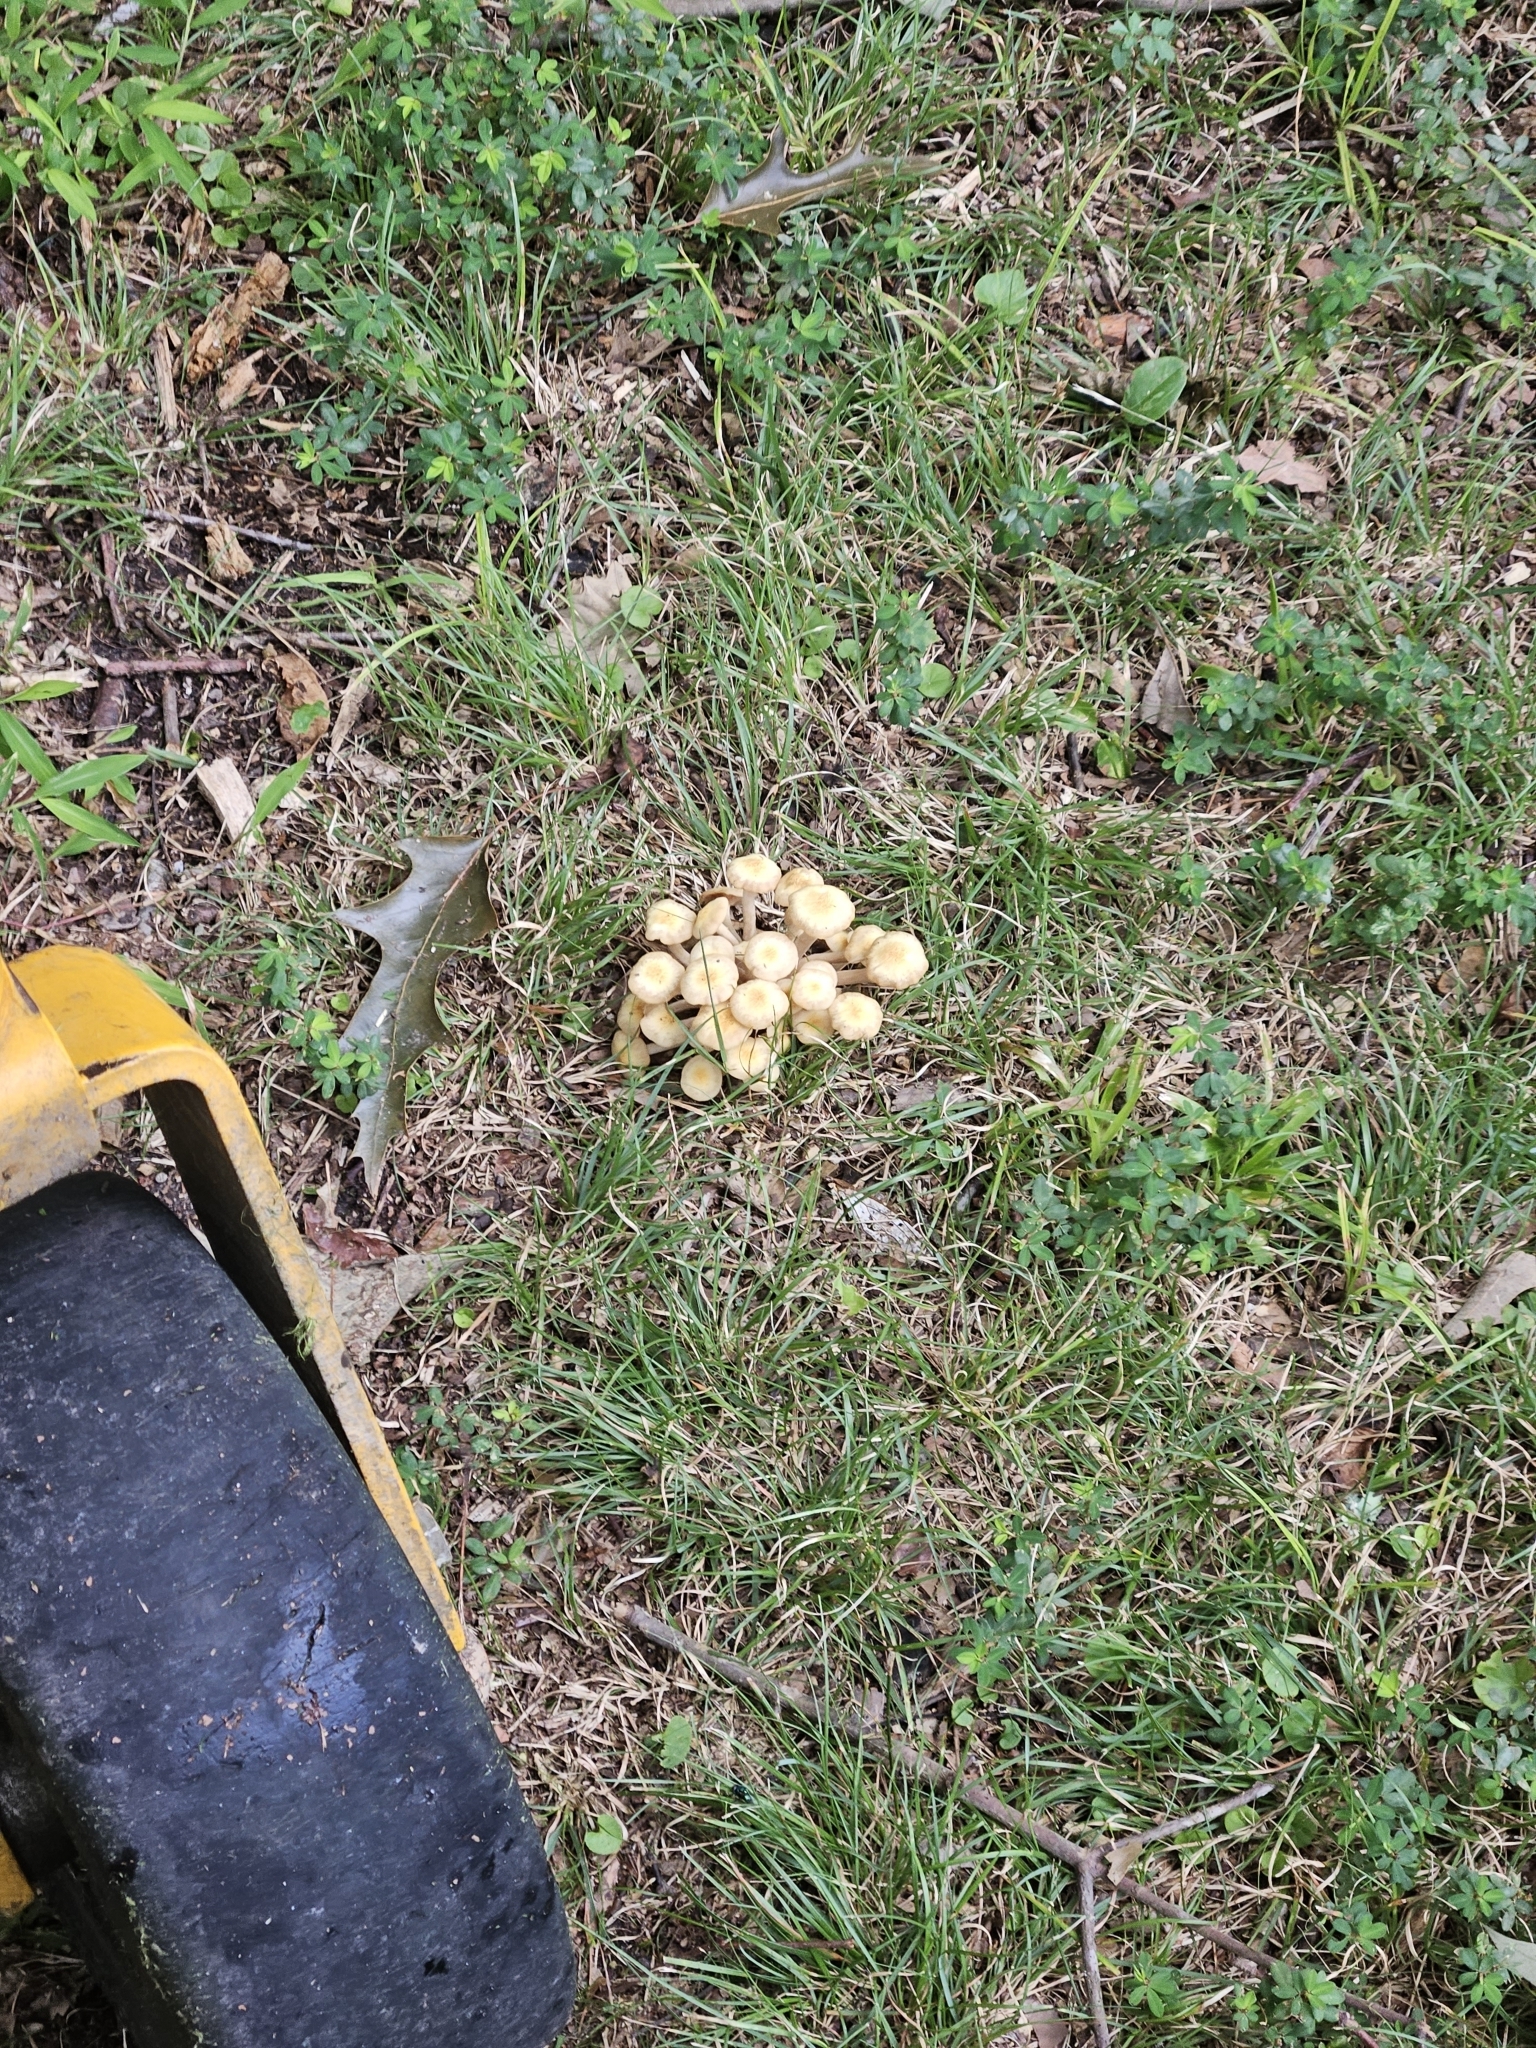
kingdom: Fungi
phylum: Basidiomycota
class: Agaricomycetes
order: Agaricales
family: Physalacriaceae
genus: Desarmillaria
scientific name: Desarmillaria caespitosa
